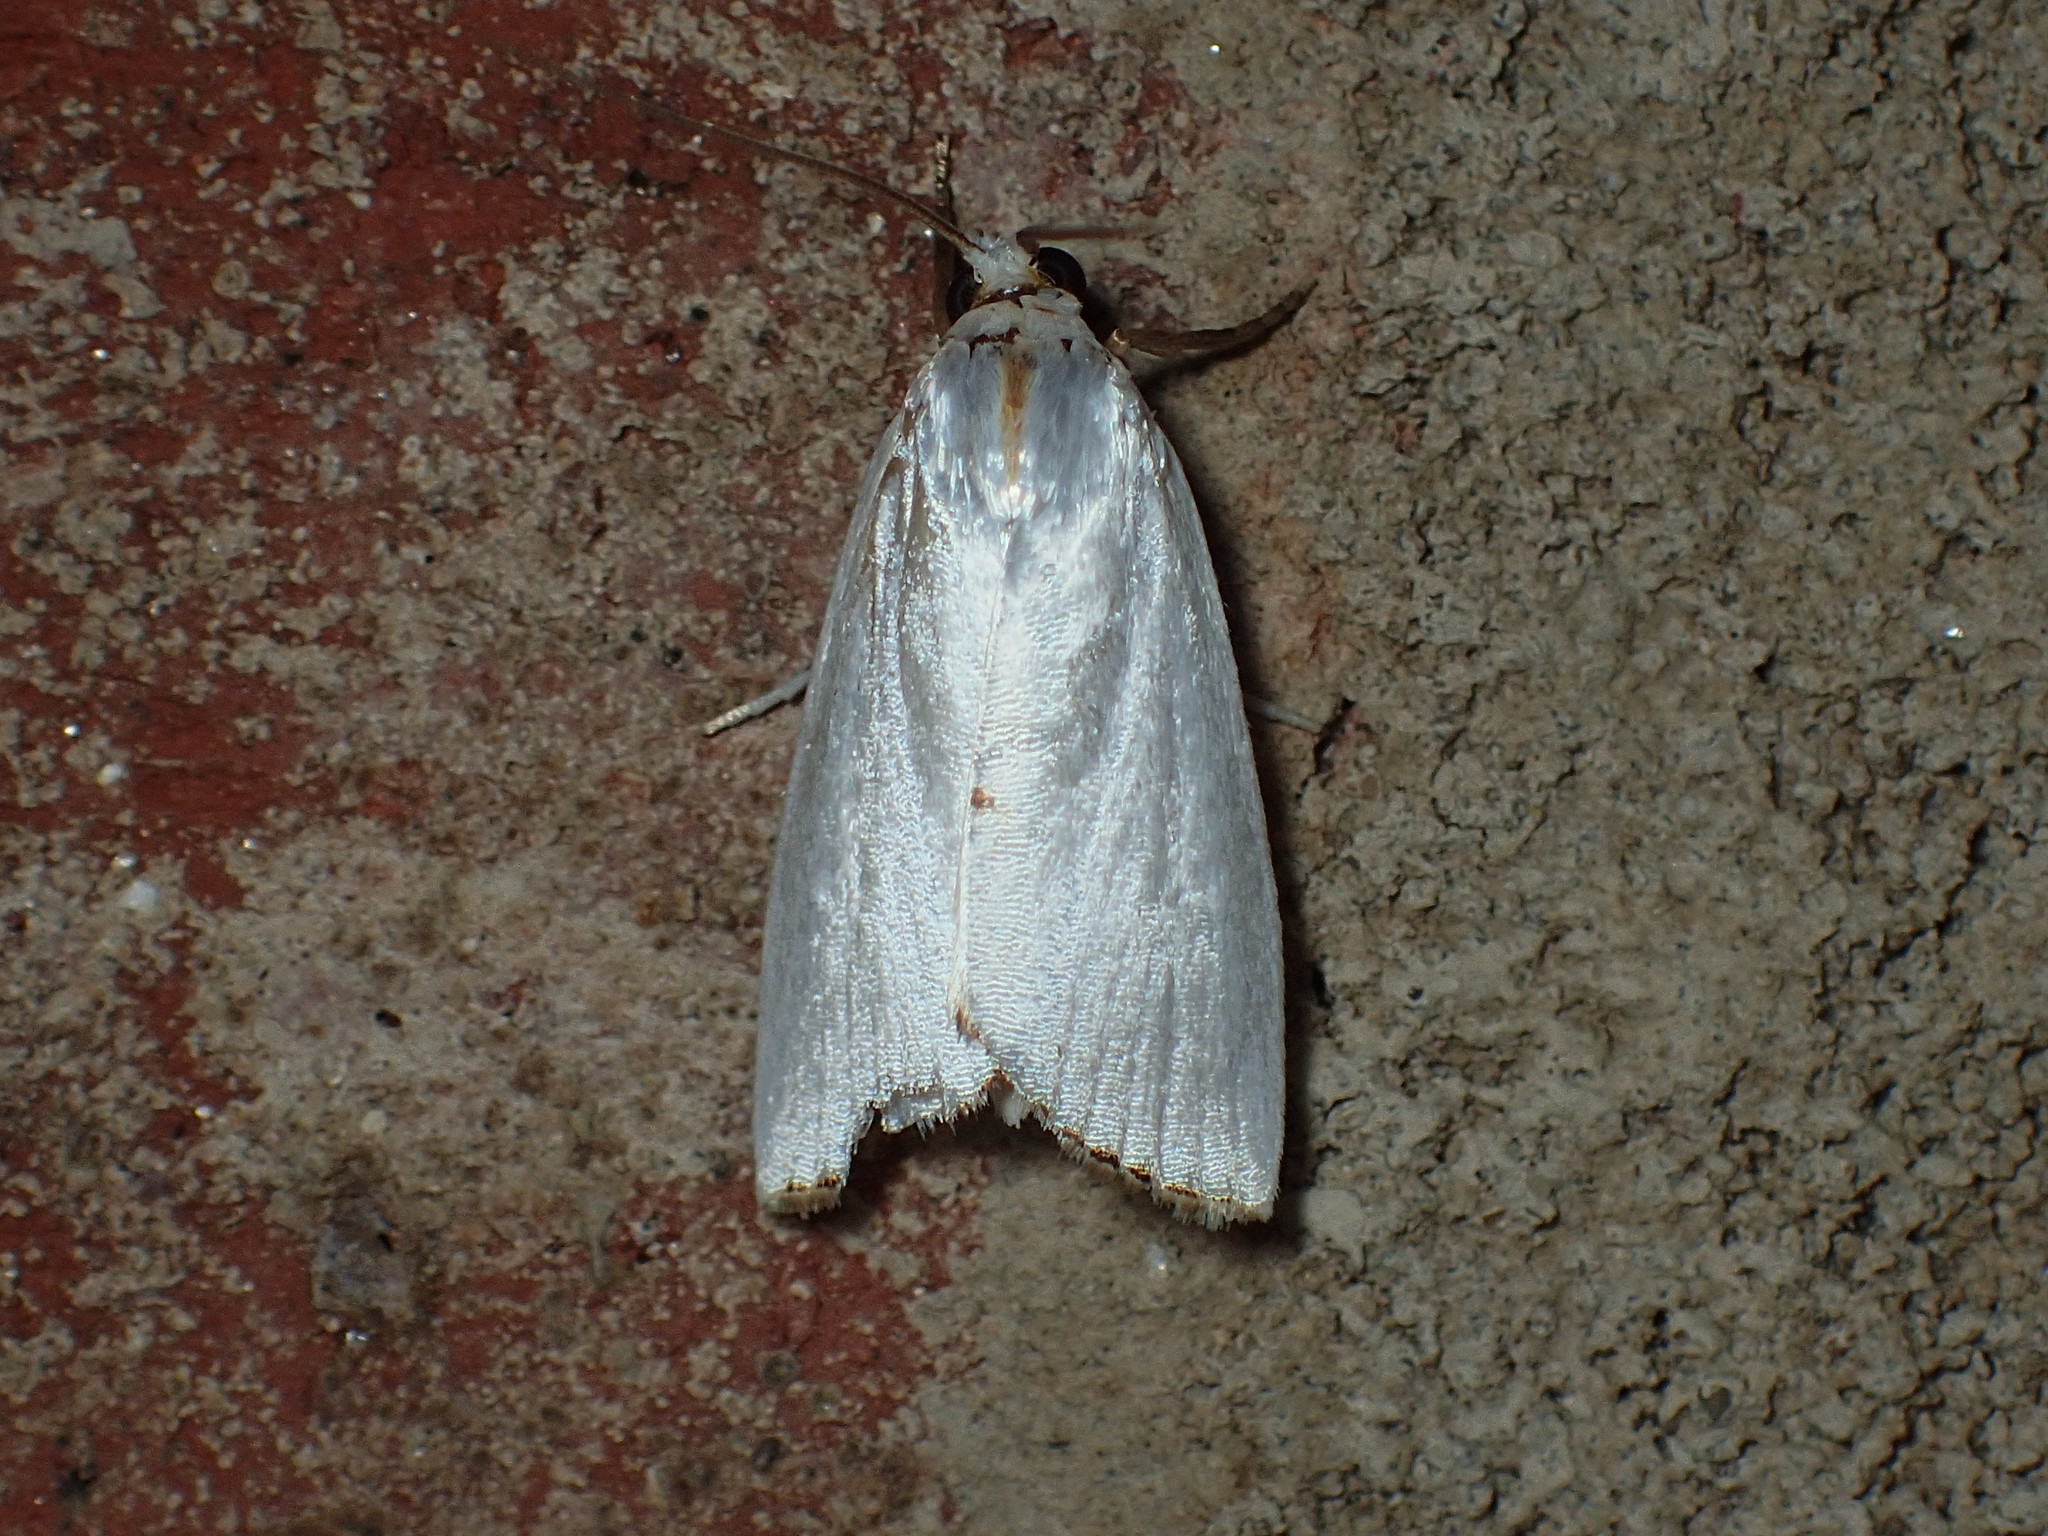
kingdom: Animalia
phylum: Arthropoda
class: Insecta
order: Lepidoptera
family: Crambidae
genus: Argyria
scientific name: Argyria nivalis
